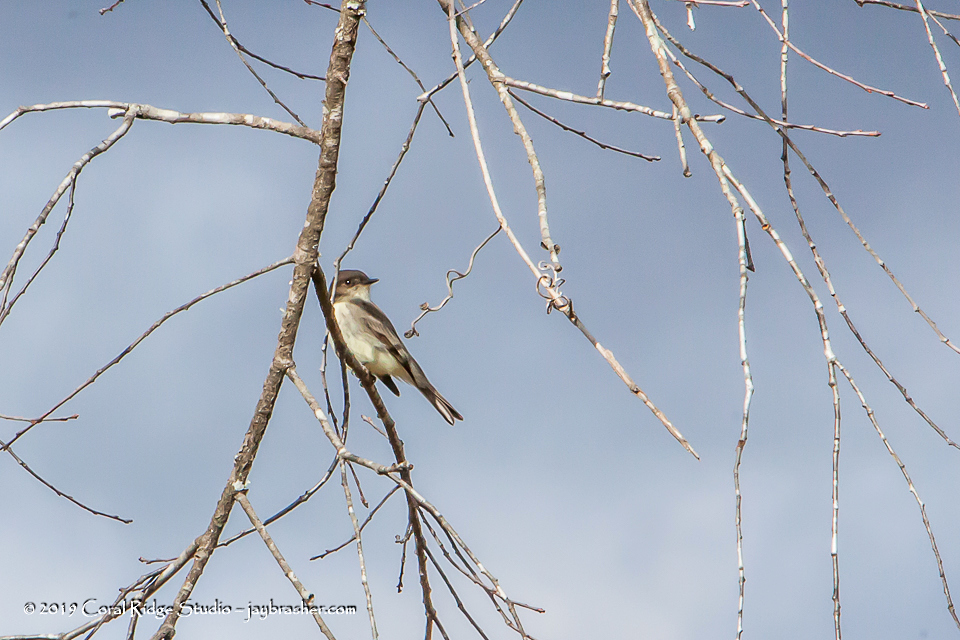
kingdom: Animalia
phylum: Chordata
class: Aves
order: Passeriformes
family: Tyrannidae
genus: Sayornis
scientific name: Sayornis phoebe
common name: Eastern phoebe
